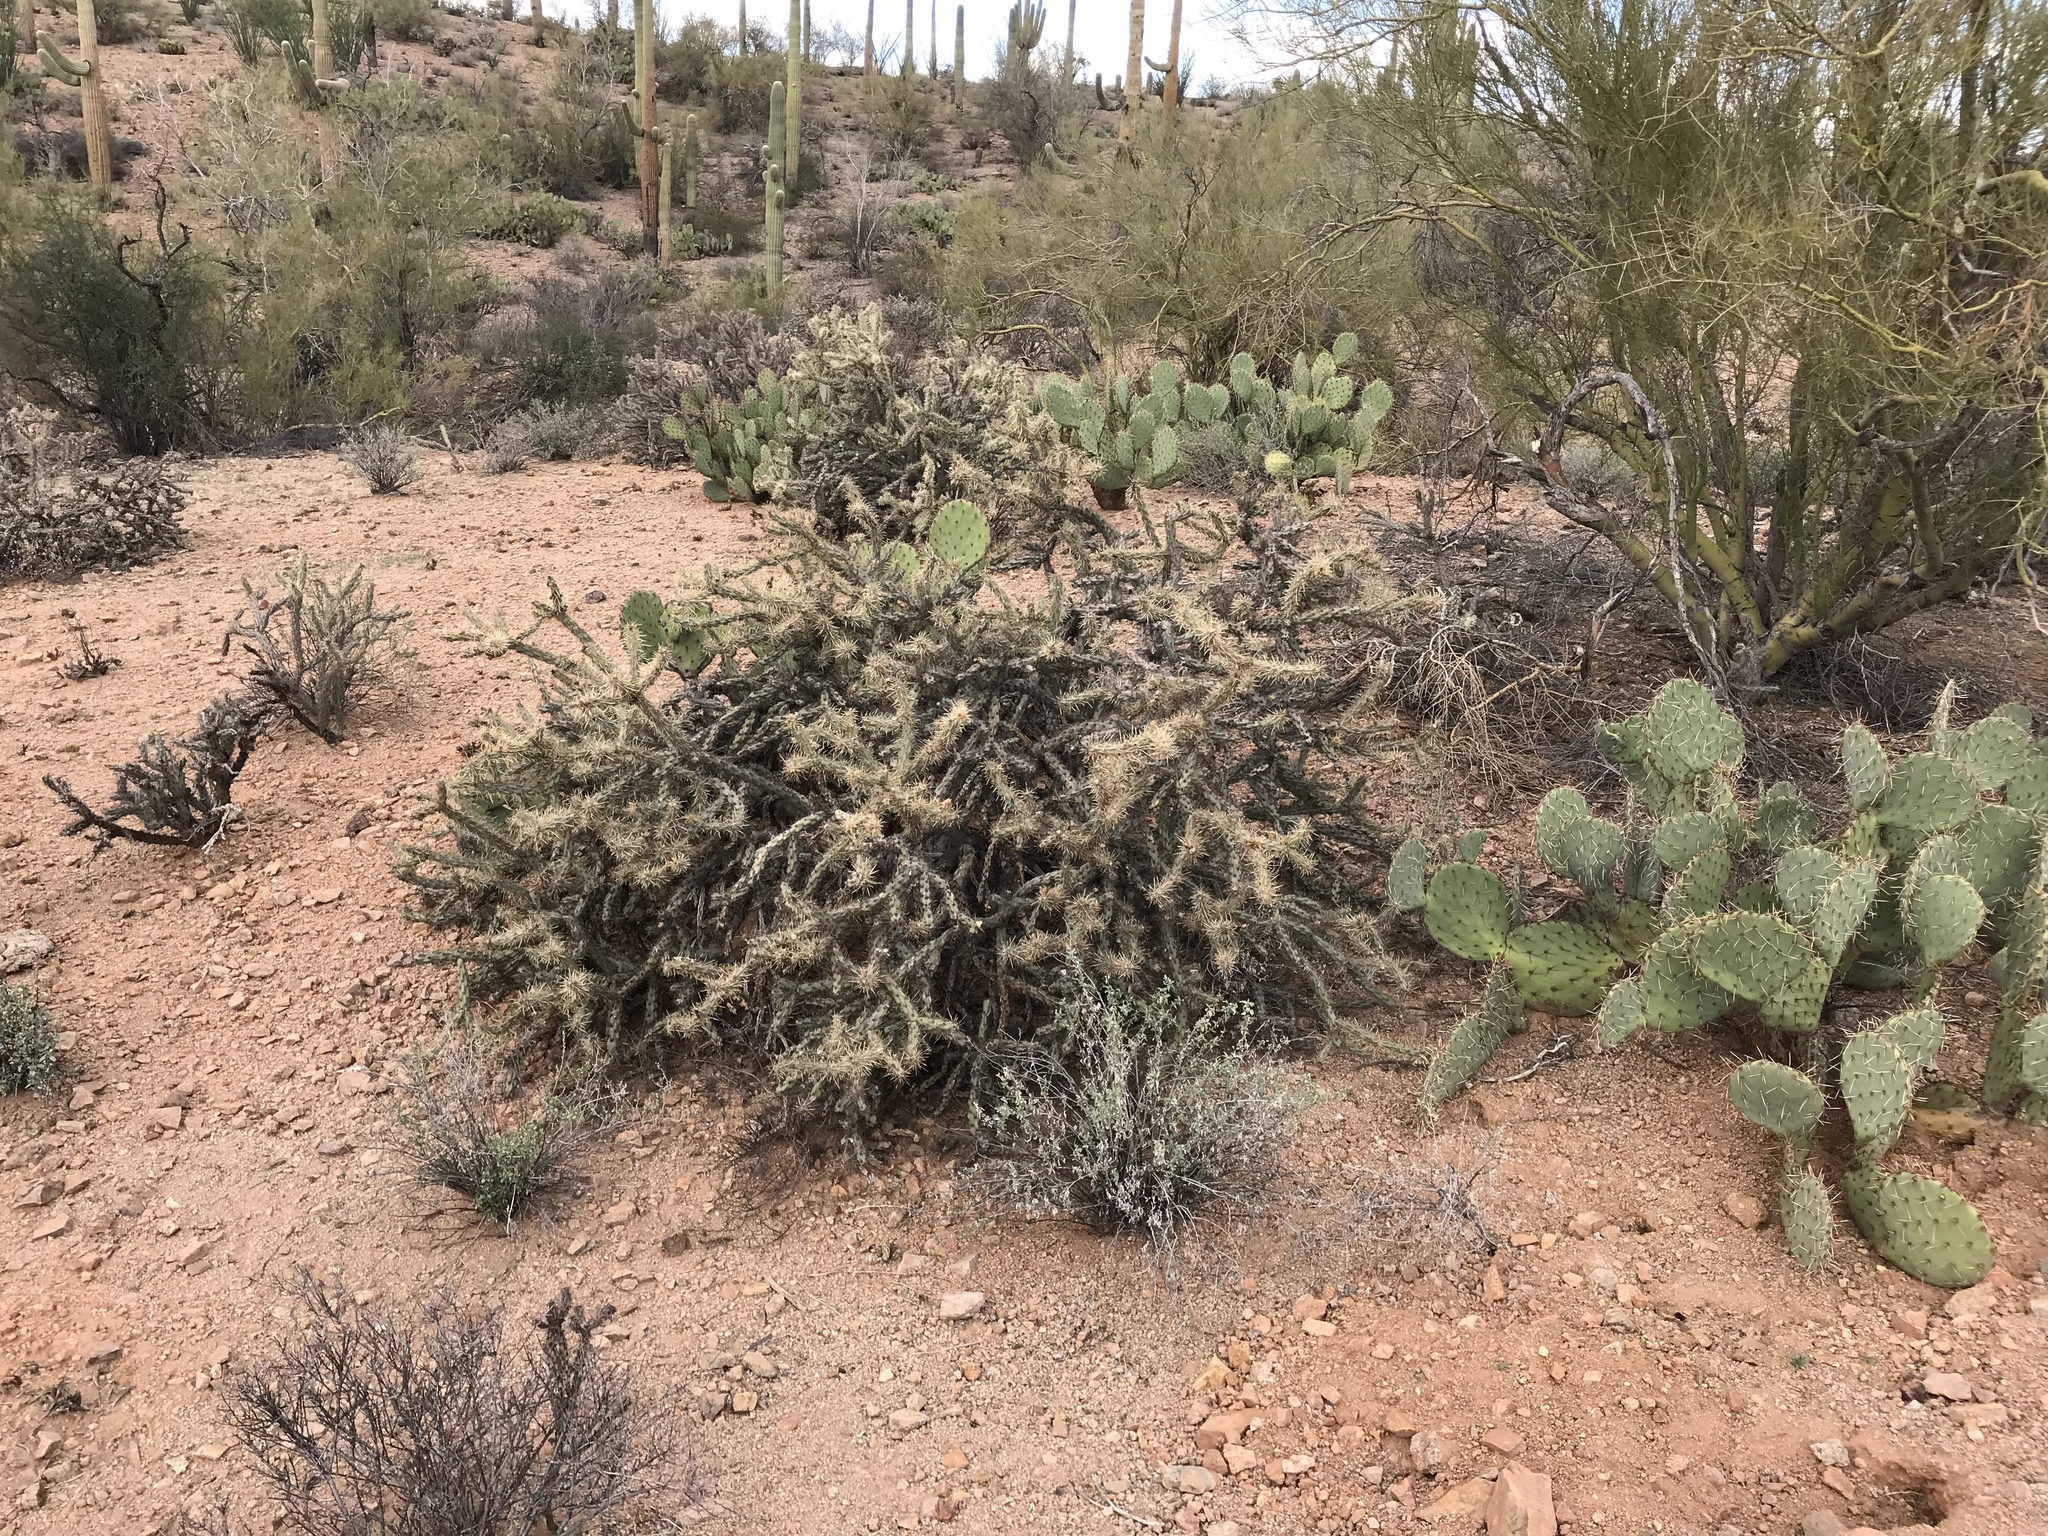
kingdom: Plantae
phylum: Tracheophyta
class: Magnoliopsida
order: Caryophyllales
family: Cactaceae
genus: Cylindropuntia
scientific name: Cylindropuntia acanthocarpa
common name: Buckhorn cholla
